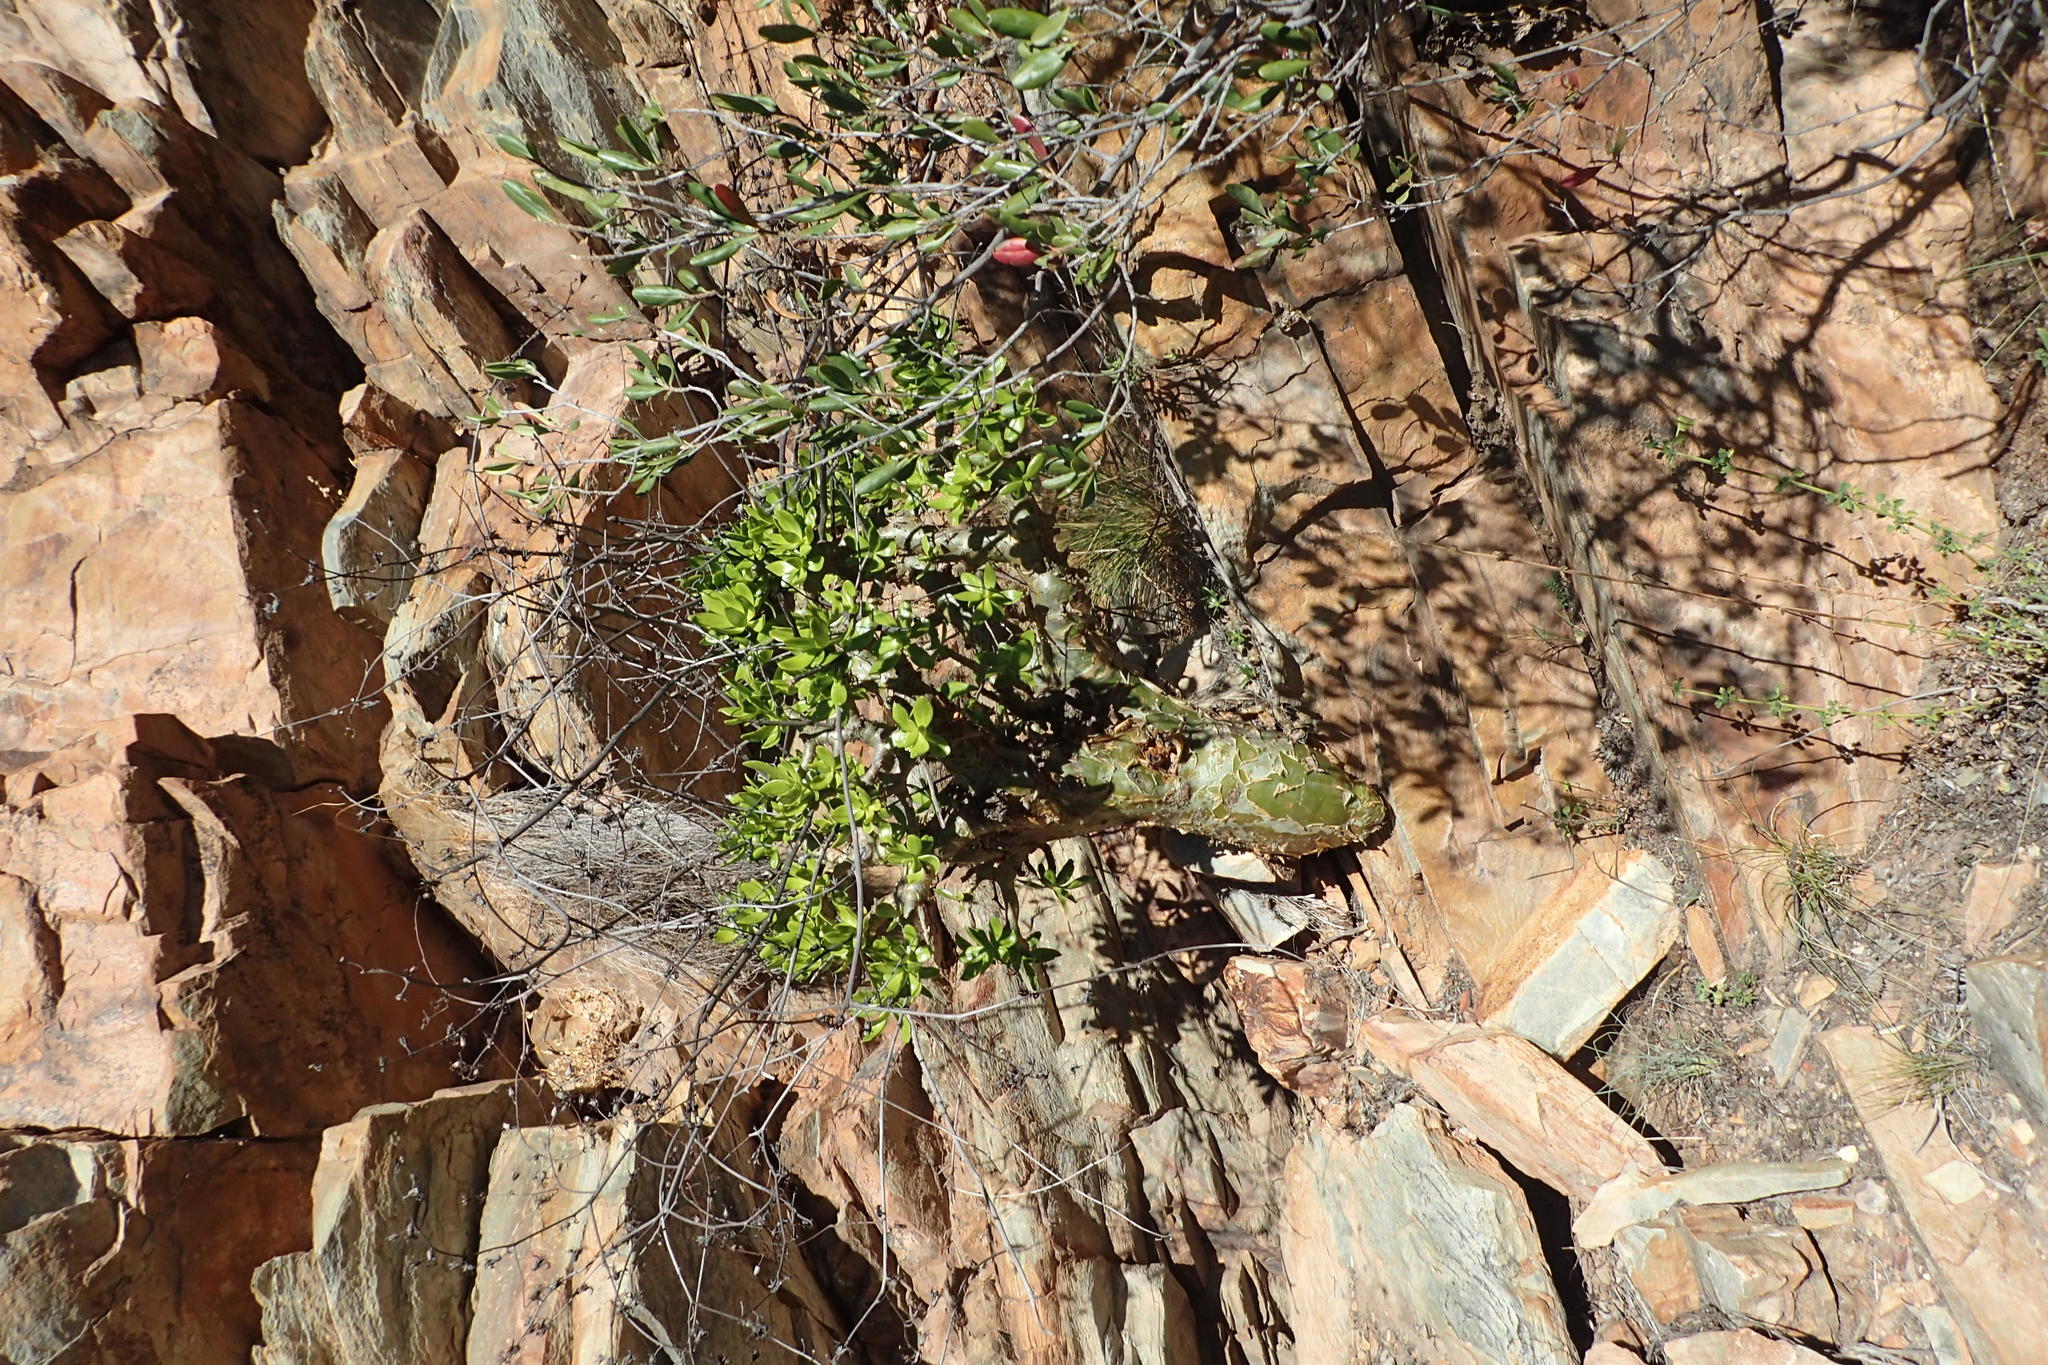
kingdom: Plantae
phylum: Tracheophyta
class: Magnoliopsida
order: Saxifragales
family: Crassulaceae
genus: Tylecodon
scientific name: Tylecodon paniculatus
